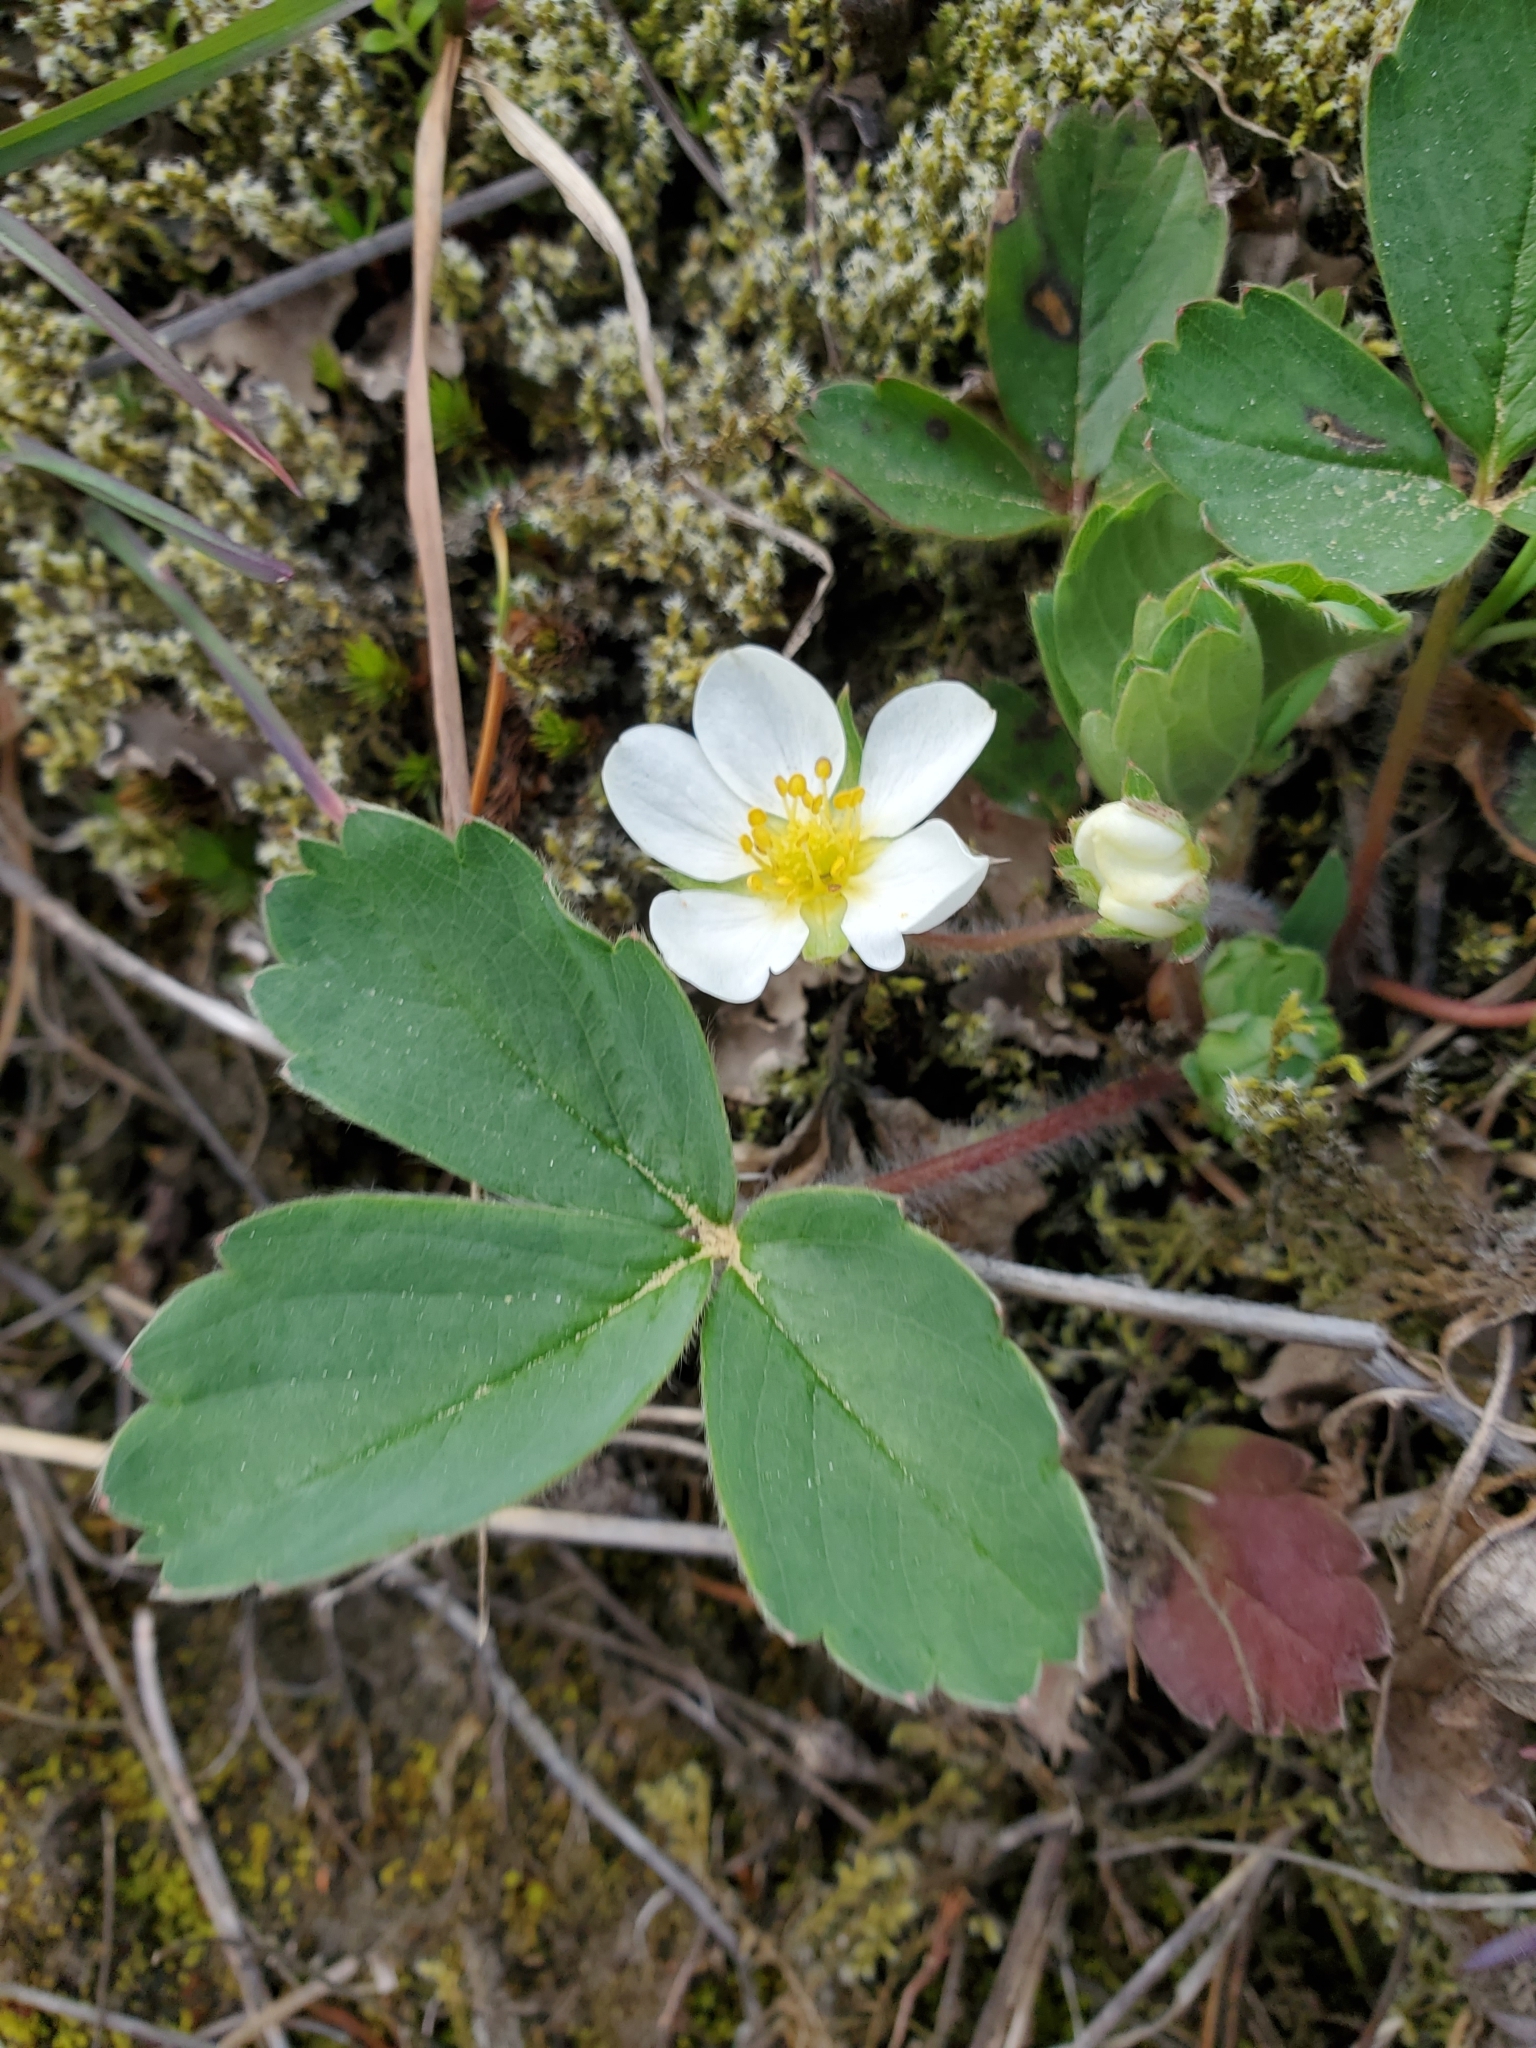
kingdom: Plantae
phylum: Tracheophyta
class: Magnoliopsida
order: Rosales
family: Rosaceae
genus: Fragaria
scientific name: Fragaria virginiana
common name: Thickleaved wild strawberry
